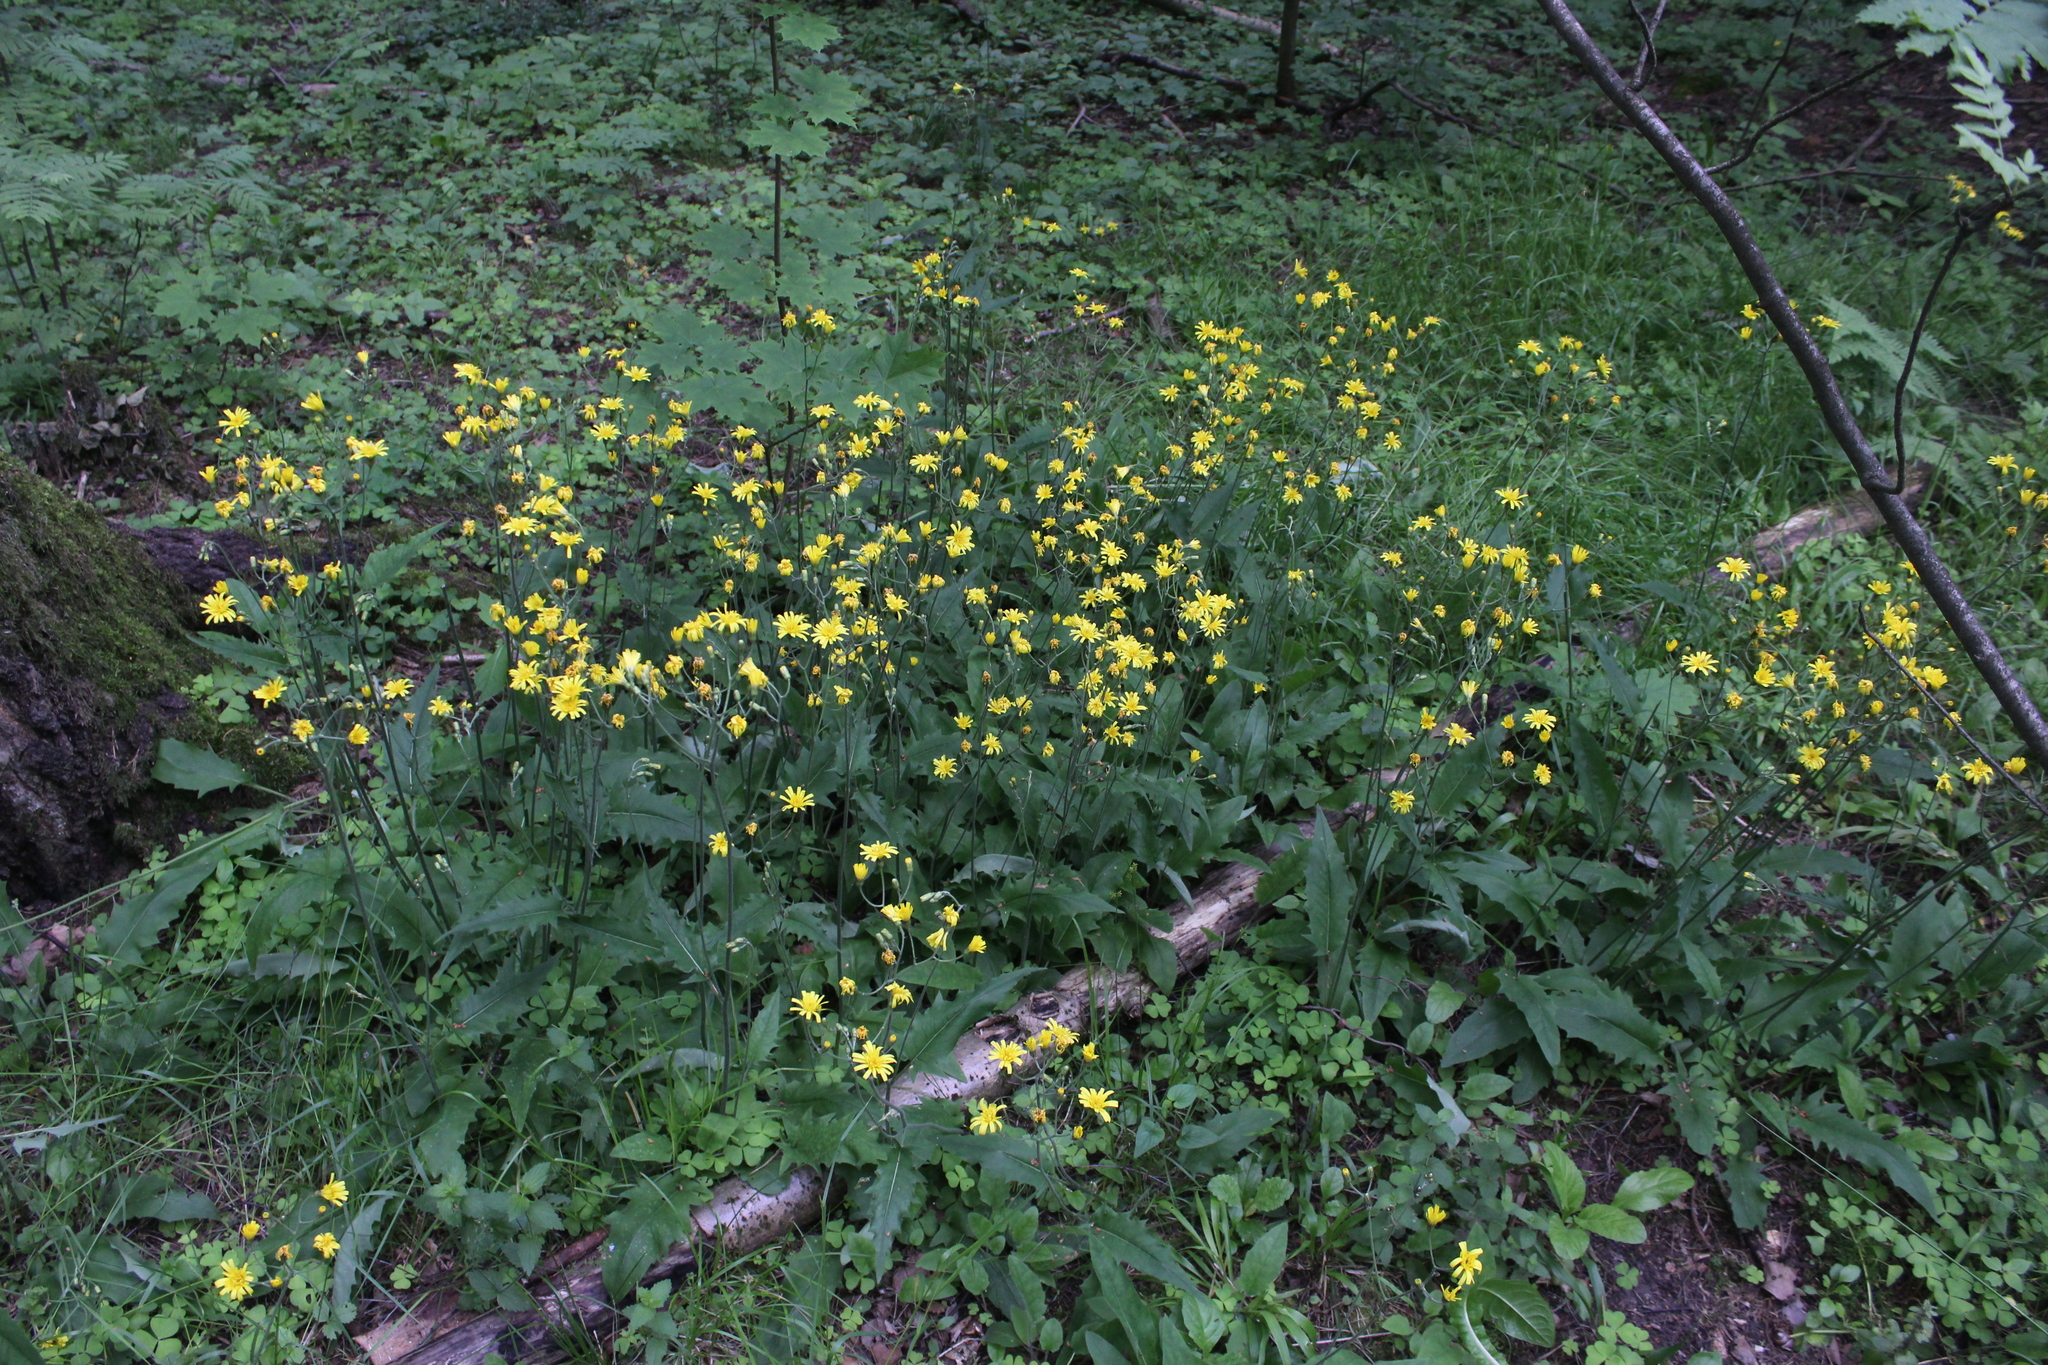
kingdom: Plantae
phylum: Tracheophyta
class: Magnoliopsida
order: Asterales
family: Asteraceae
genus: Hieracium
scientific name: Hieracium murorum
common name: Wall hawkweed
